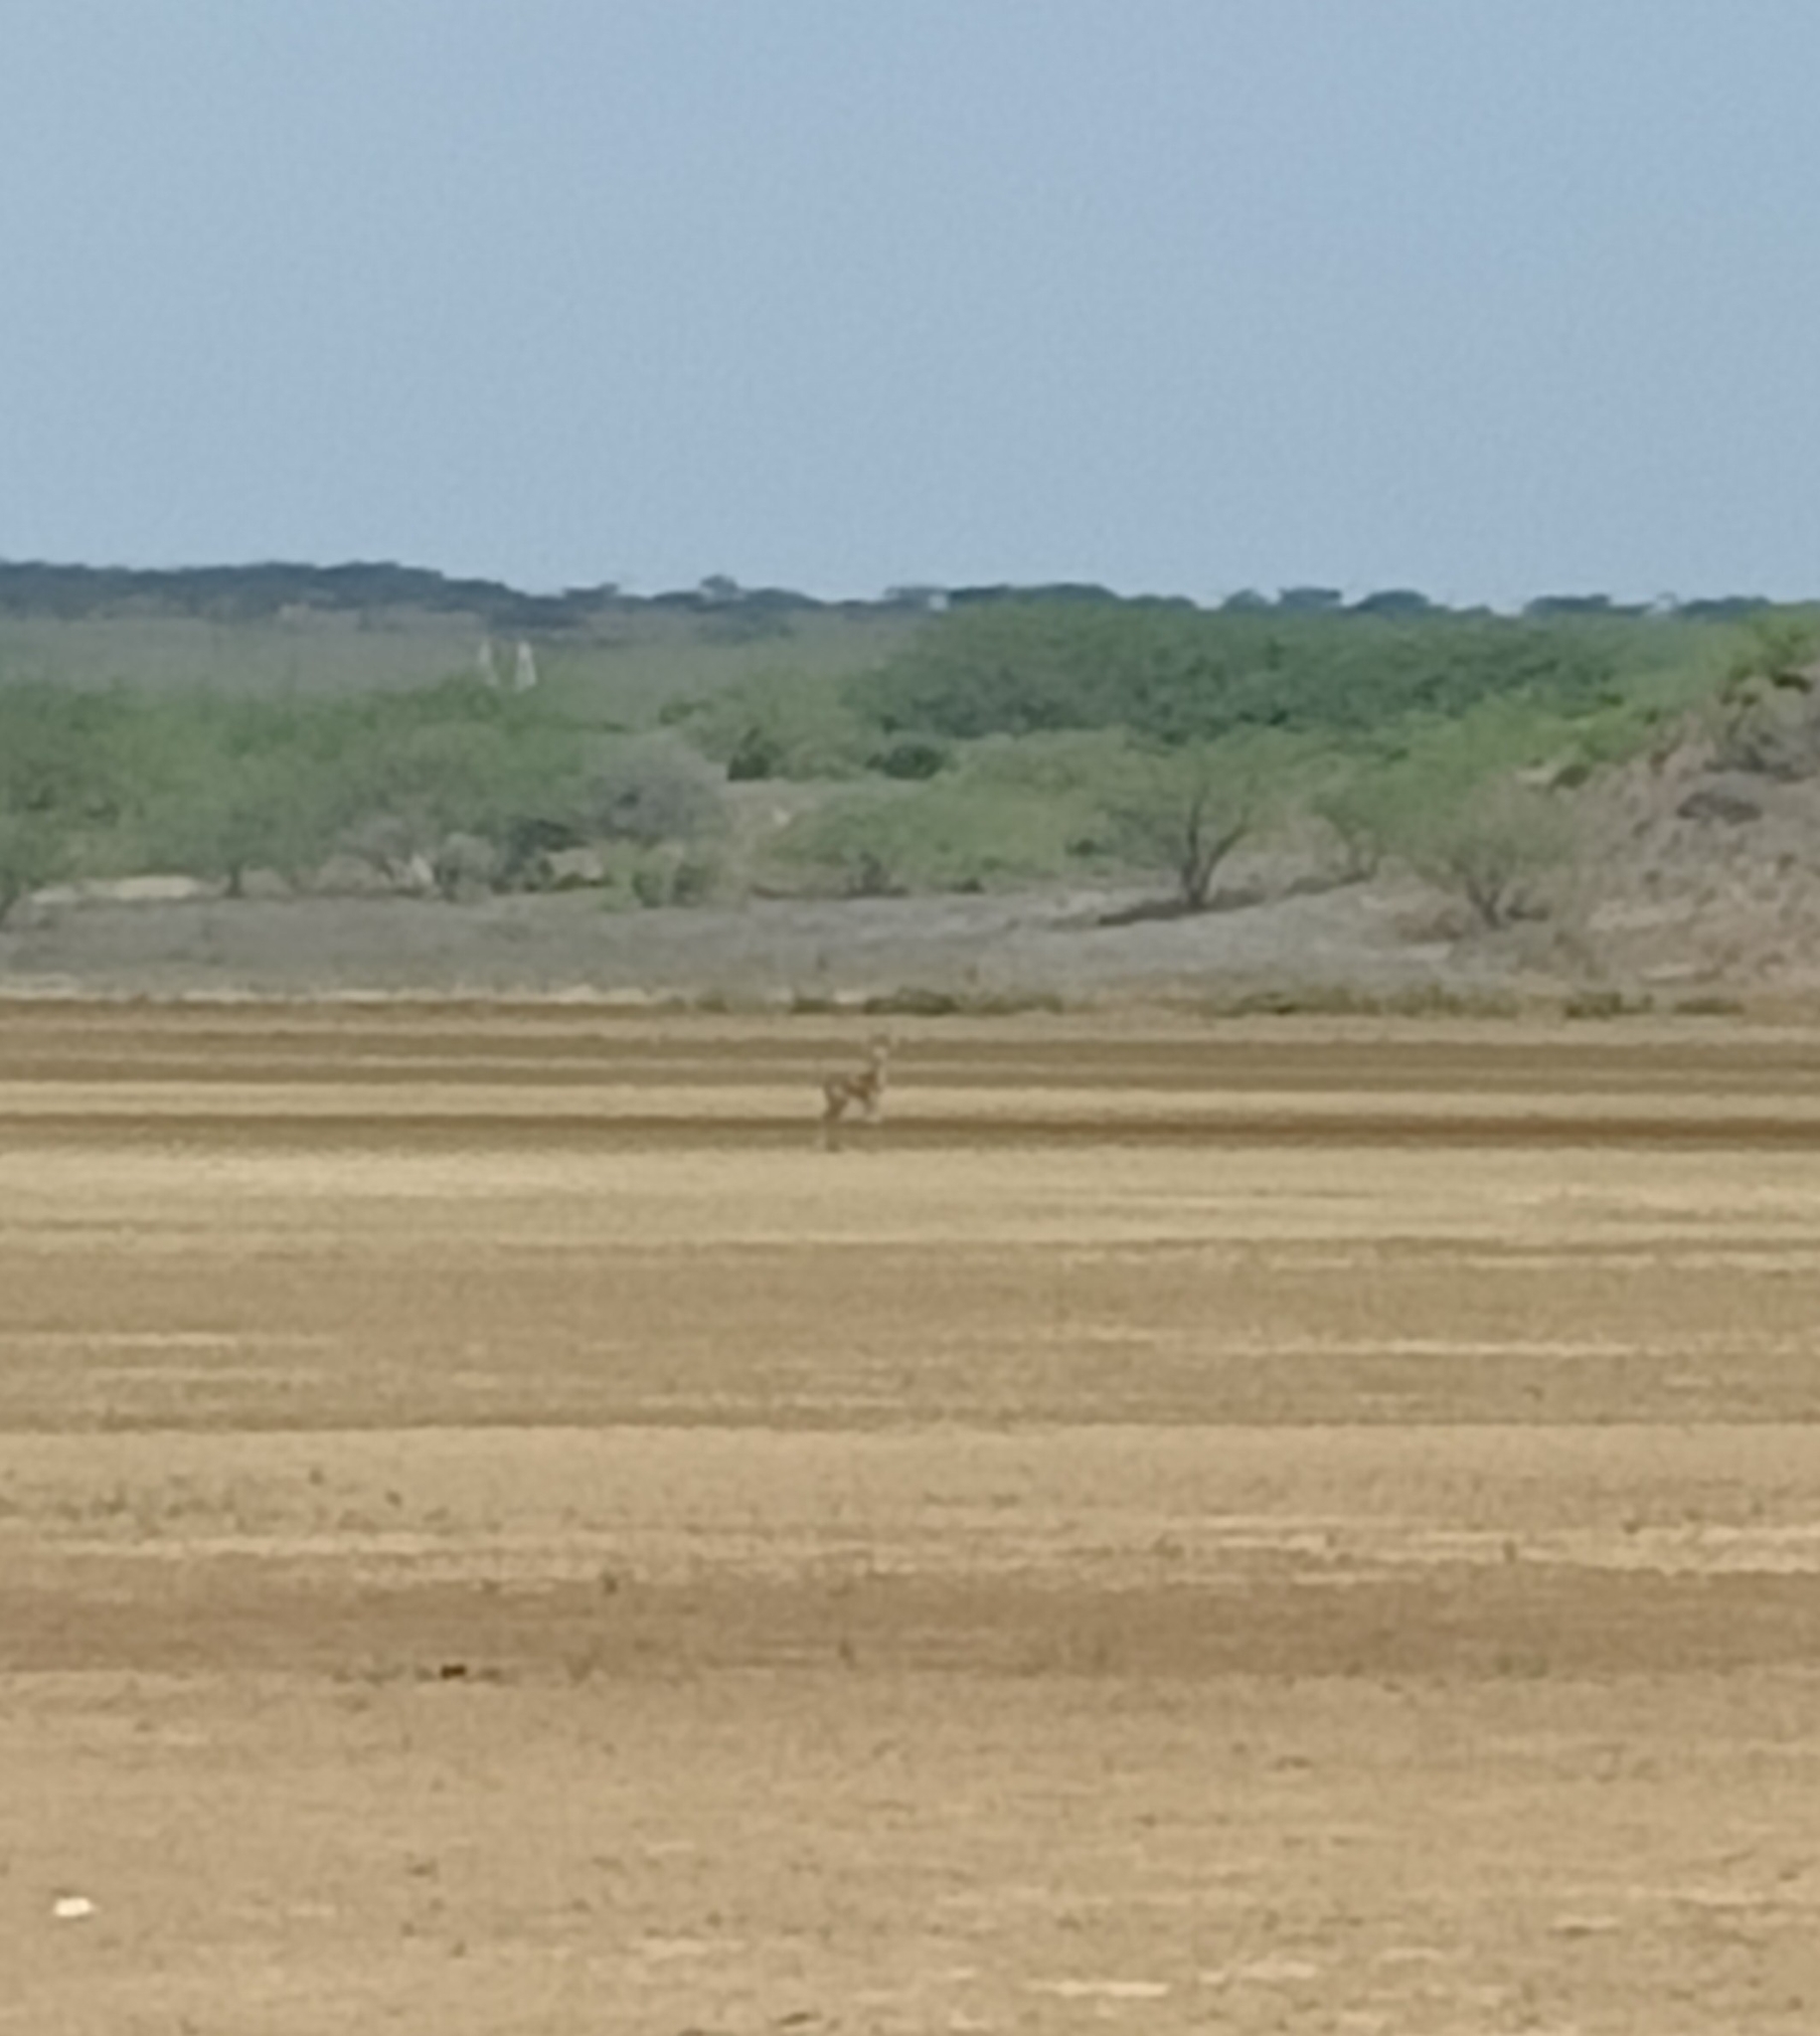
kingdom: Animalia
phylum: Chordata
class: Mammalia
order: Artiodactyla
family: Bovidae
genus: Gazella
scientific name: Gazella bennettii
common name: Indian gazelle
